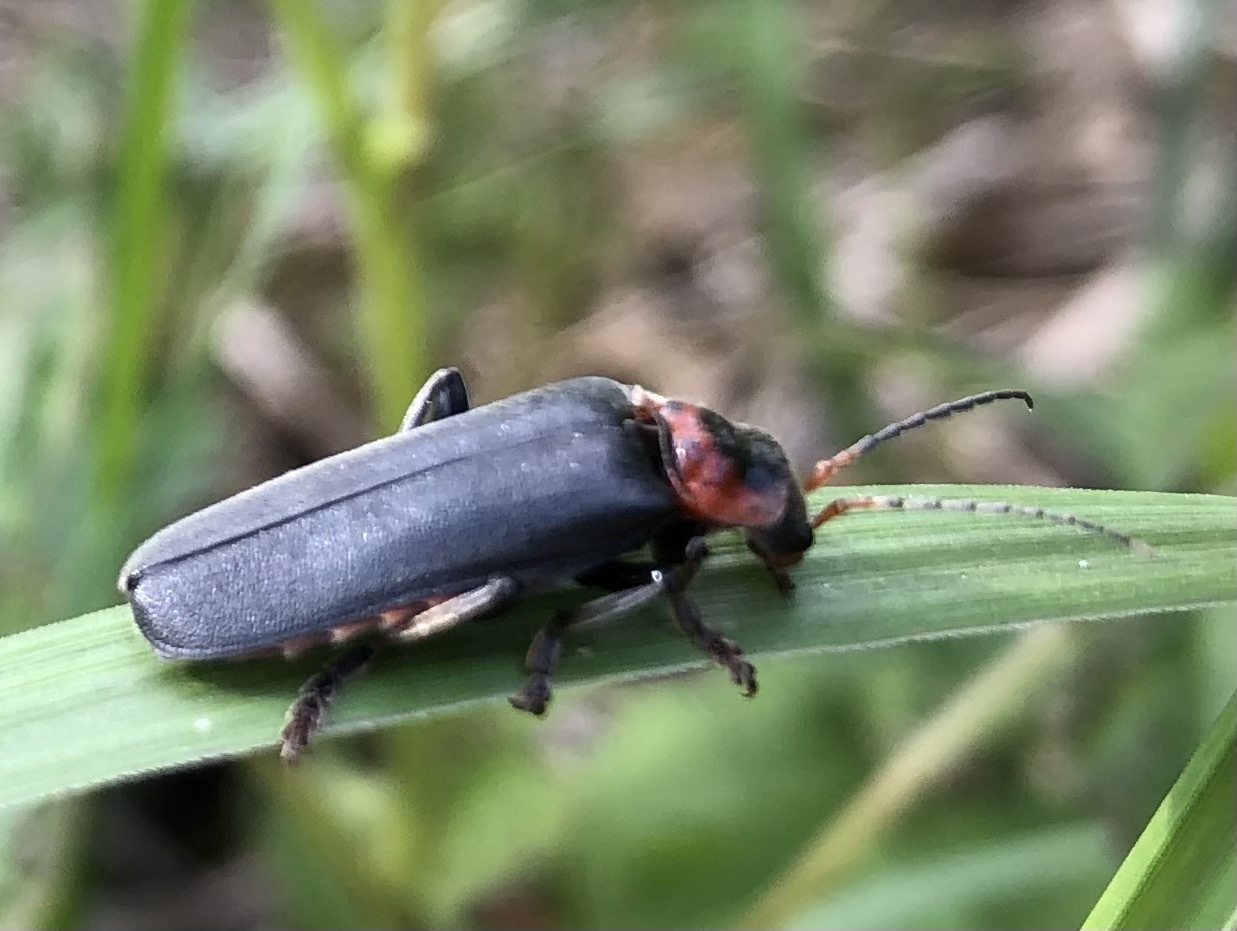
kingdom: Animalia
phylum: Arthropoda
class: Insecta
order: Coleoptera
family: Cantharidae
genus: Cantharis
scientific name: Cantharis fusca
